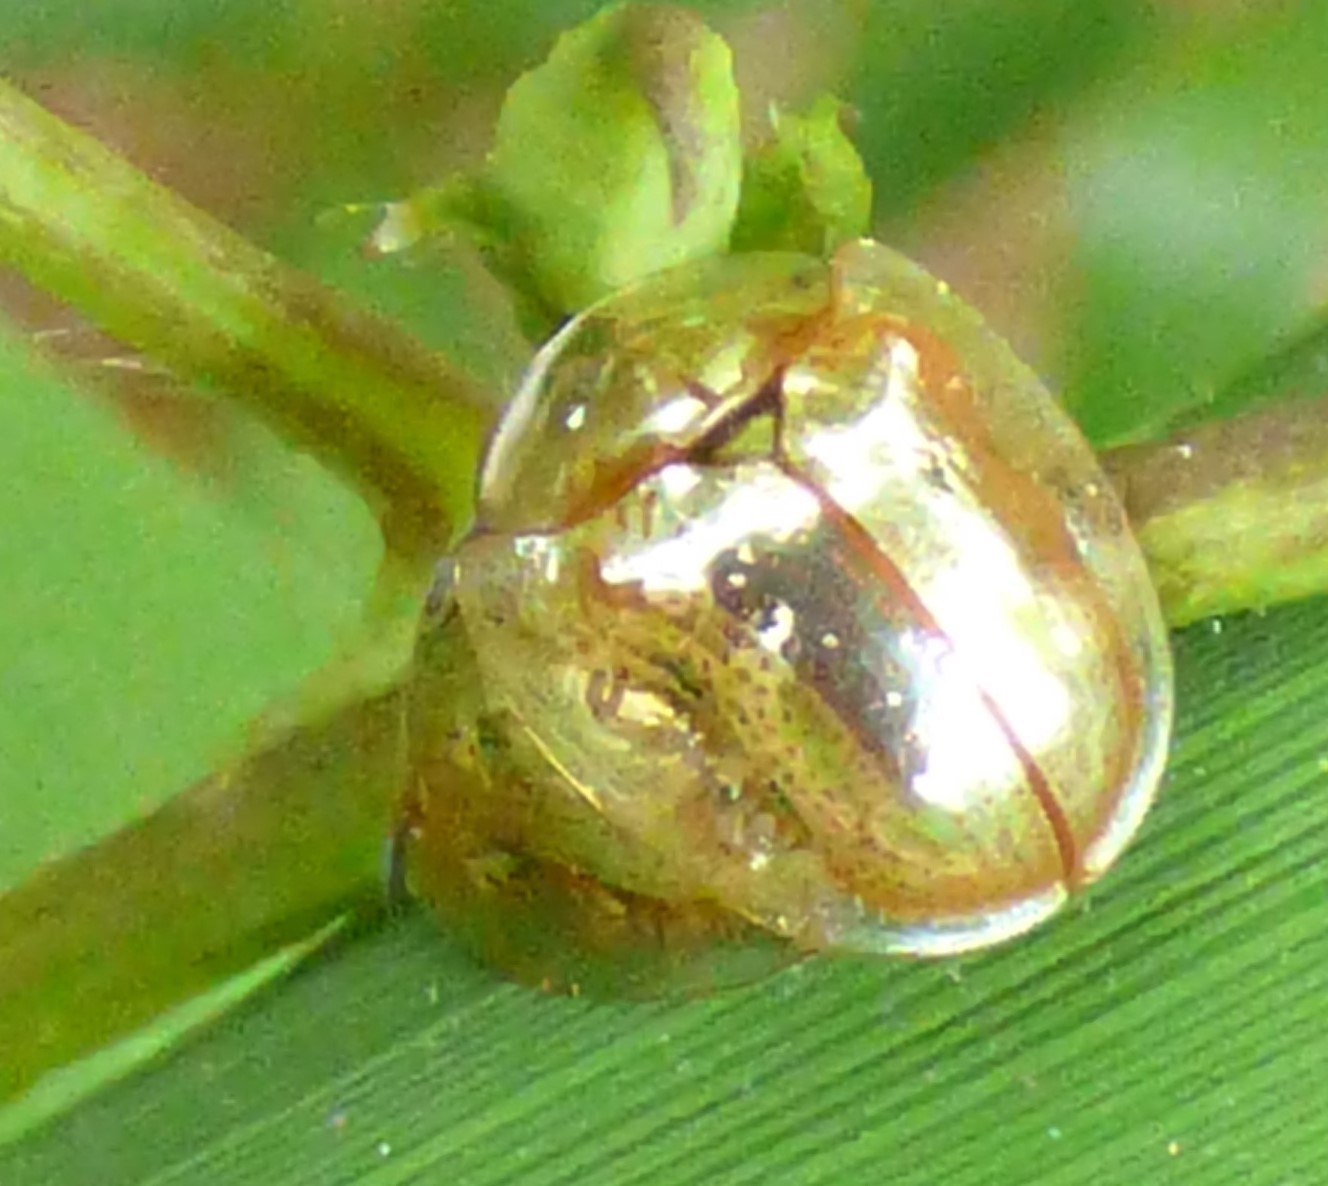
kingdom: Animalia
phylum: Arthropoda
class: Insecta
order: Coleoptera
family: Chrysomelidae
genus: Charidotella
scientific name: Charidotella sexpunctata
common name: Golden tortoise beetle
